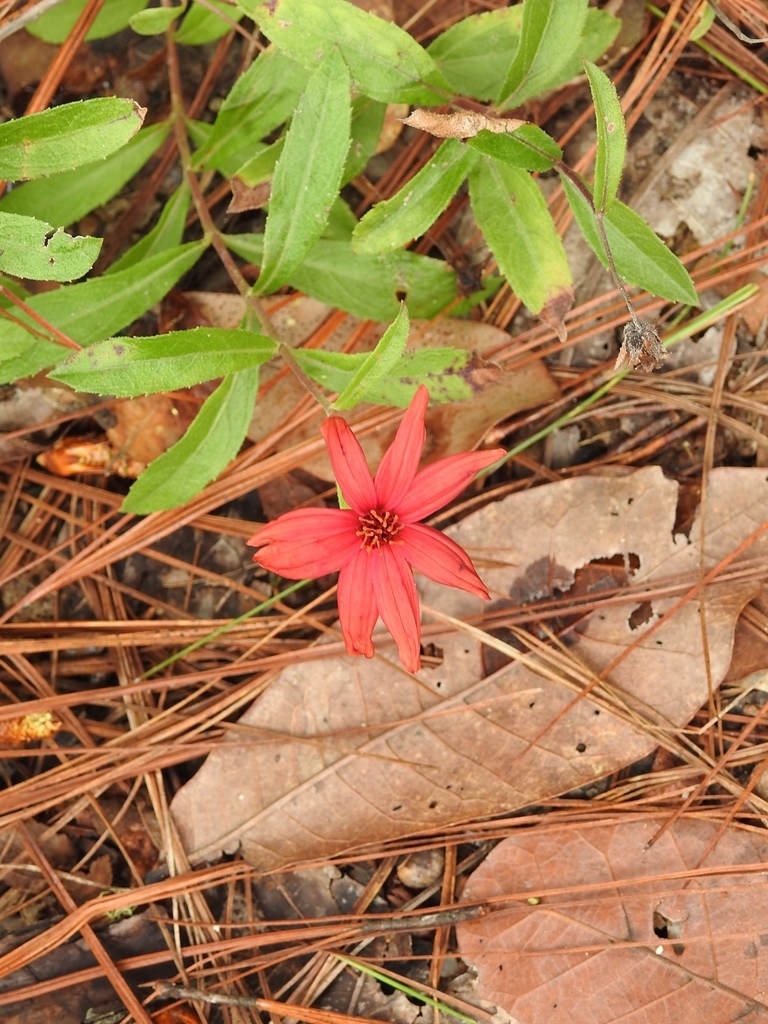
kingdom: Plantae
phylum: Tracheophyta
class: Magnoliopsida
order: Asterales
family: Asteraceae
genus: Wedelia
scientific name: Wedelia purpurea
